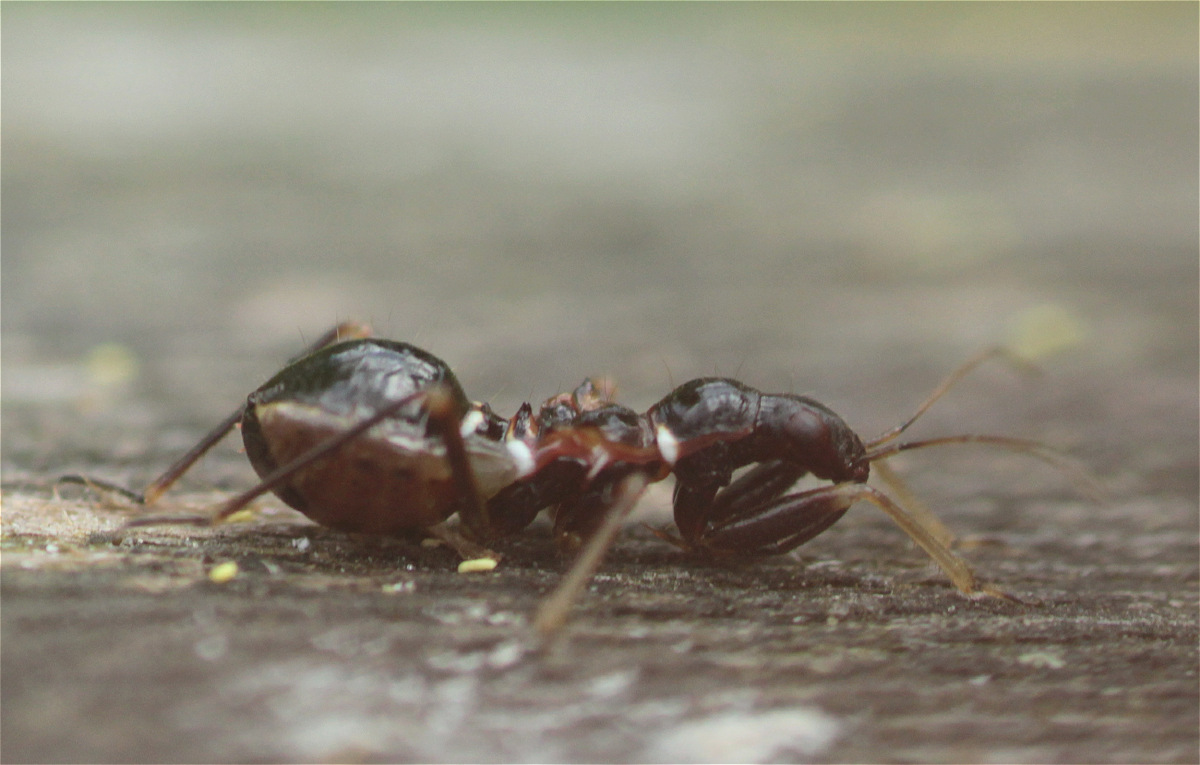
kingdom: Animalia
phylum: Arthropoda
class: Insecta
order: Hemiptera
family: Nabidae
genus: Himacerus
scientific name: Himacerus mirmicoides
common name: Ant damsel bug
